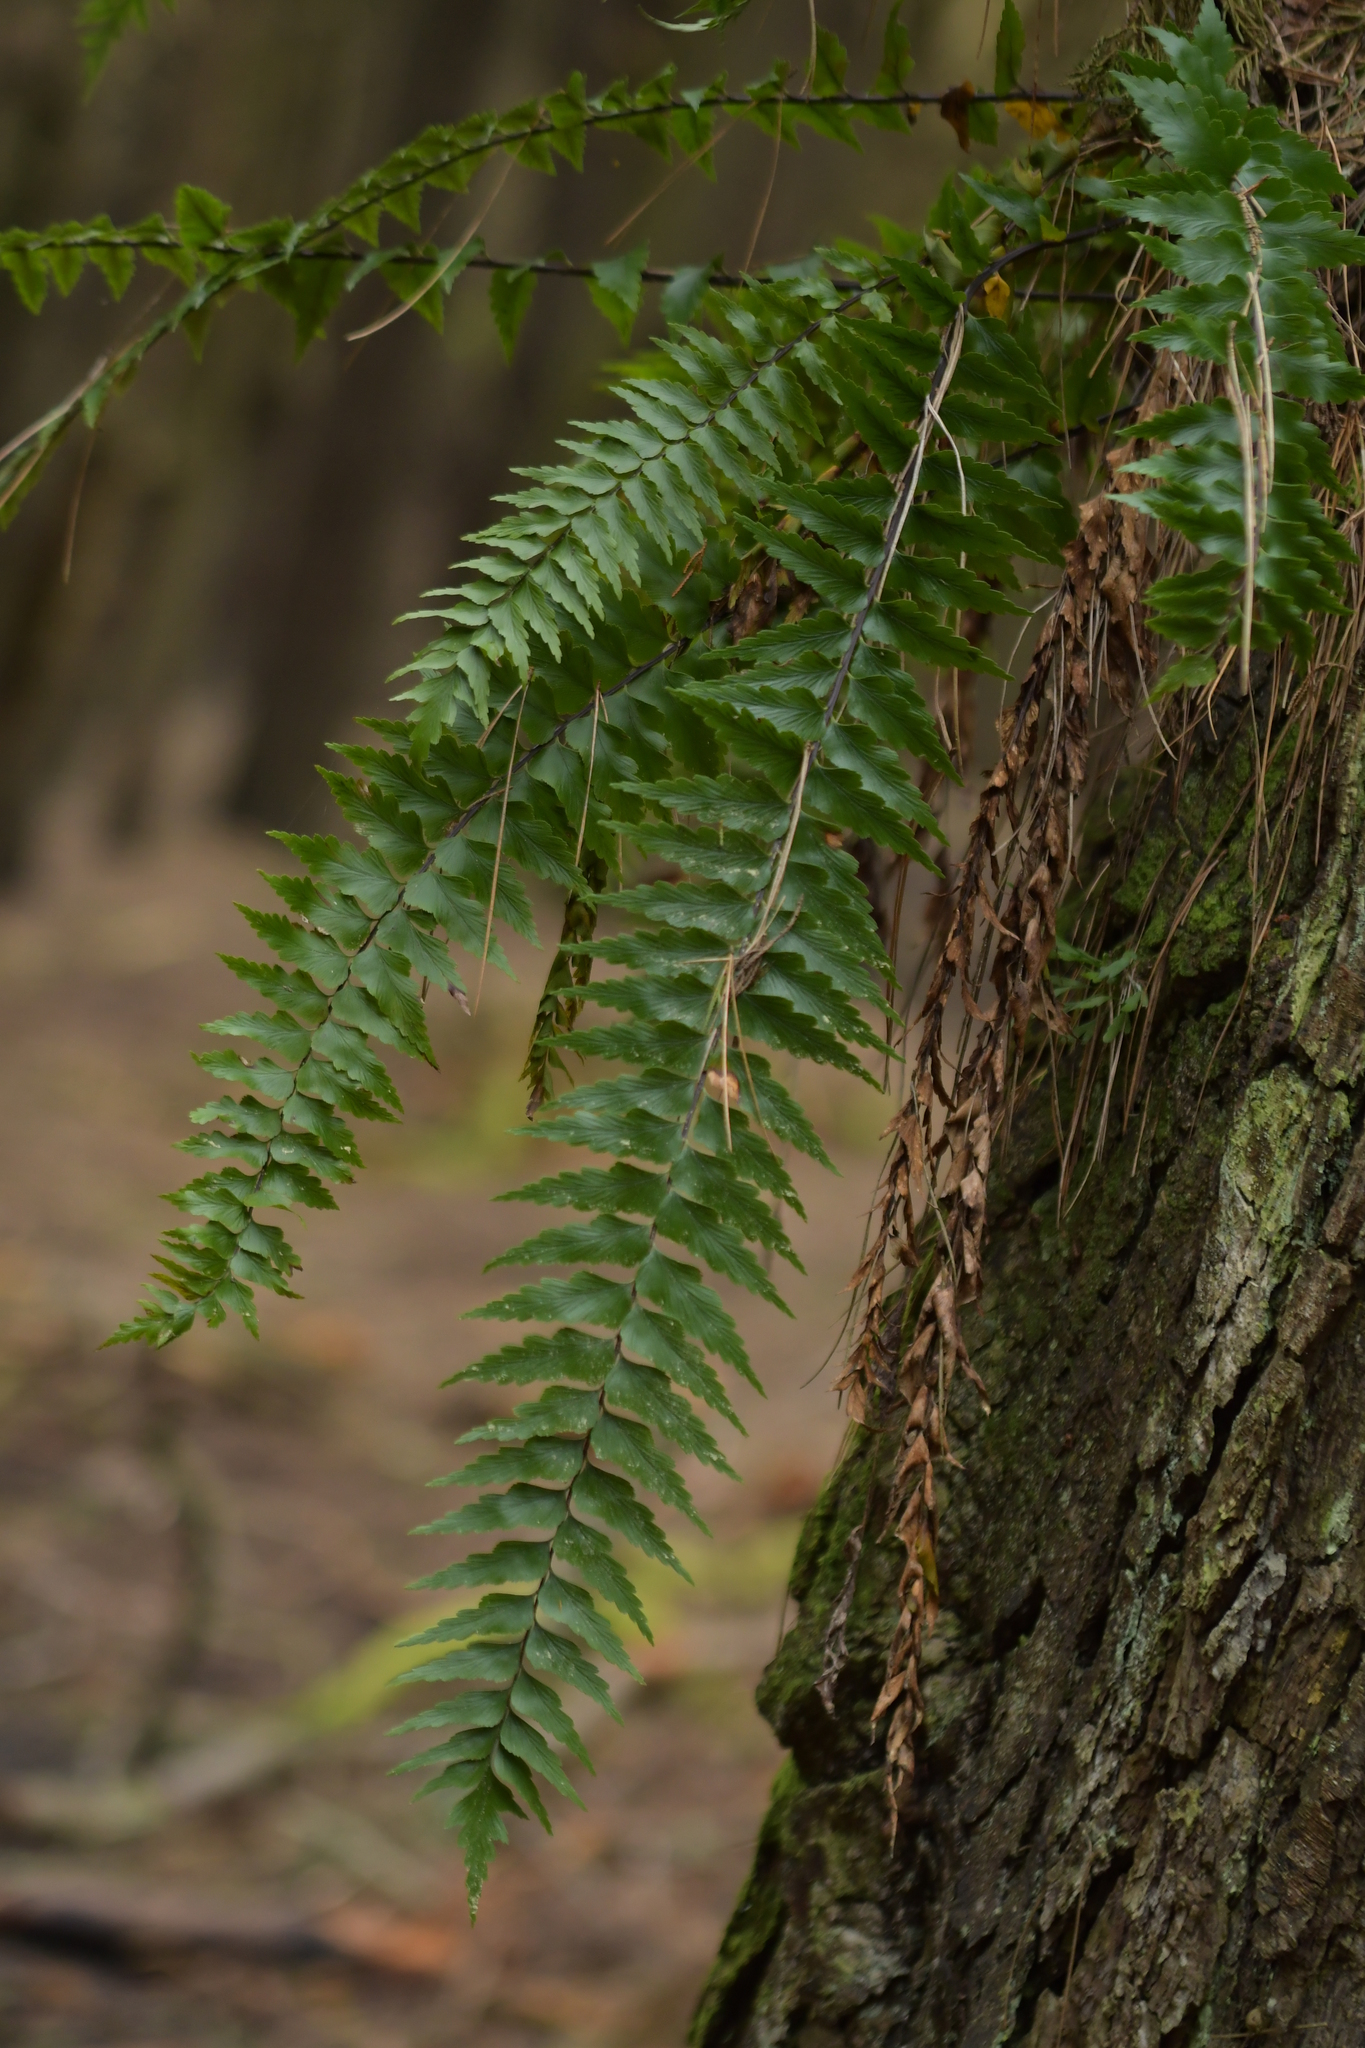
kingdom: Plantae
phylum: Tracheophyta
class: Polypodiopsida
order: Polypodiales
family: Aspleniaceae
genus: Asplenium
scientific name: Asplenium polyodon
